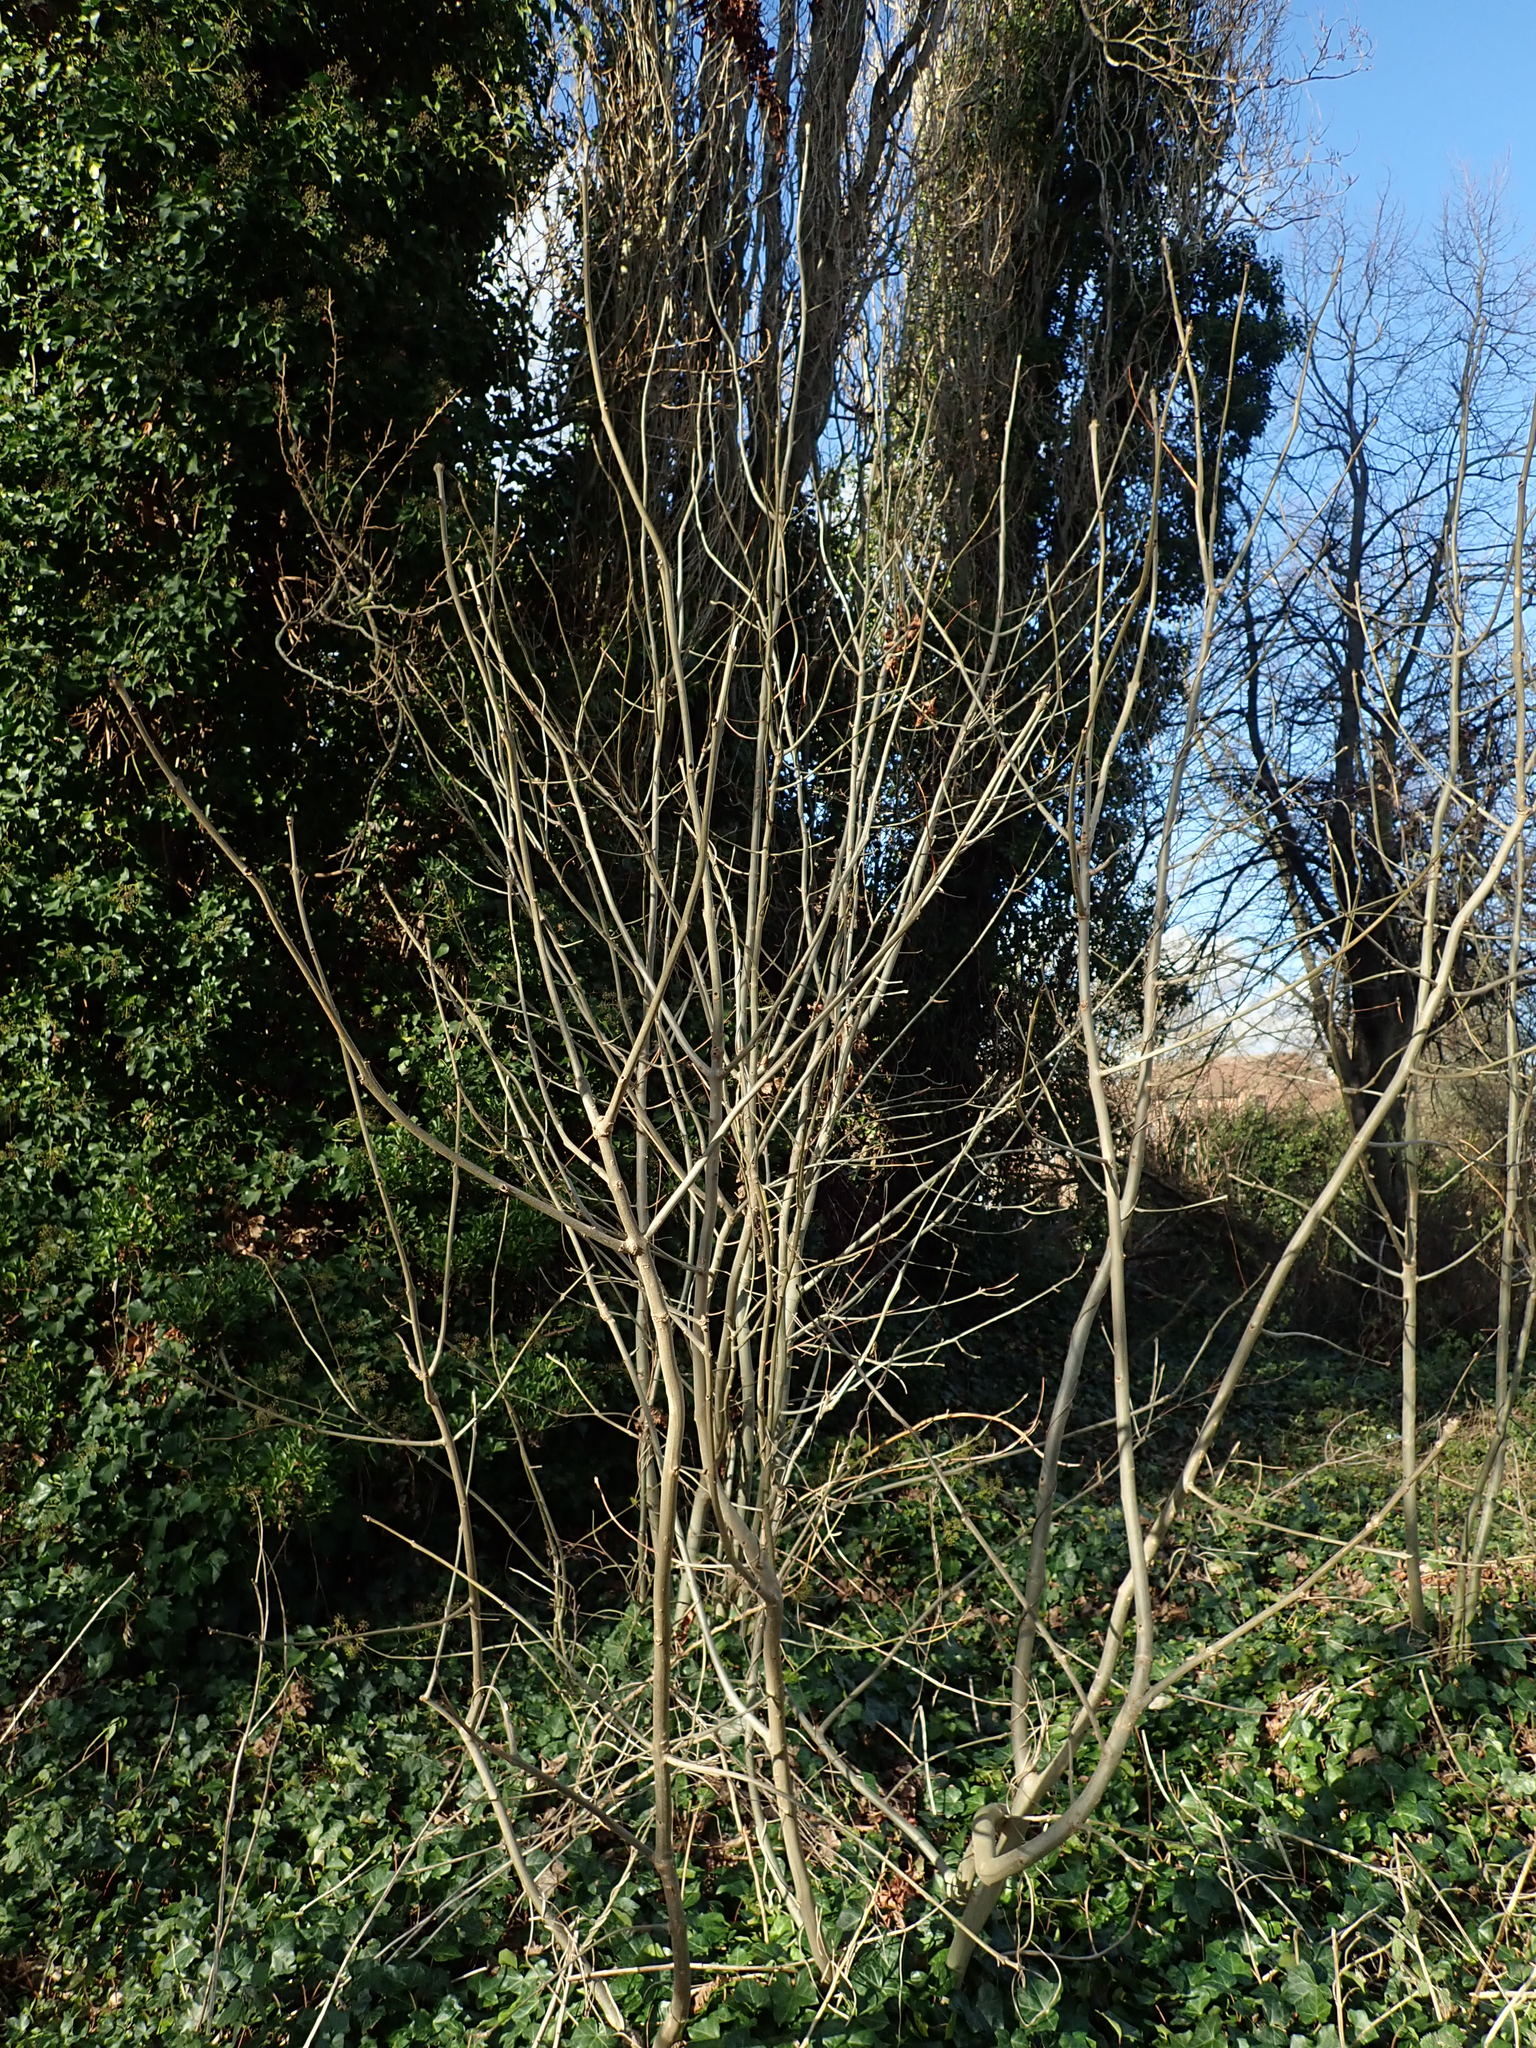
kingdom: Plantae
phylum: Tracheophyta
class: Magnoliopsida
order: Lamiales
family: Oleaceae
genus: Fraxinus
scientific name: Fraxinus excelsior
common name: European ash
